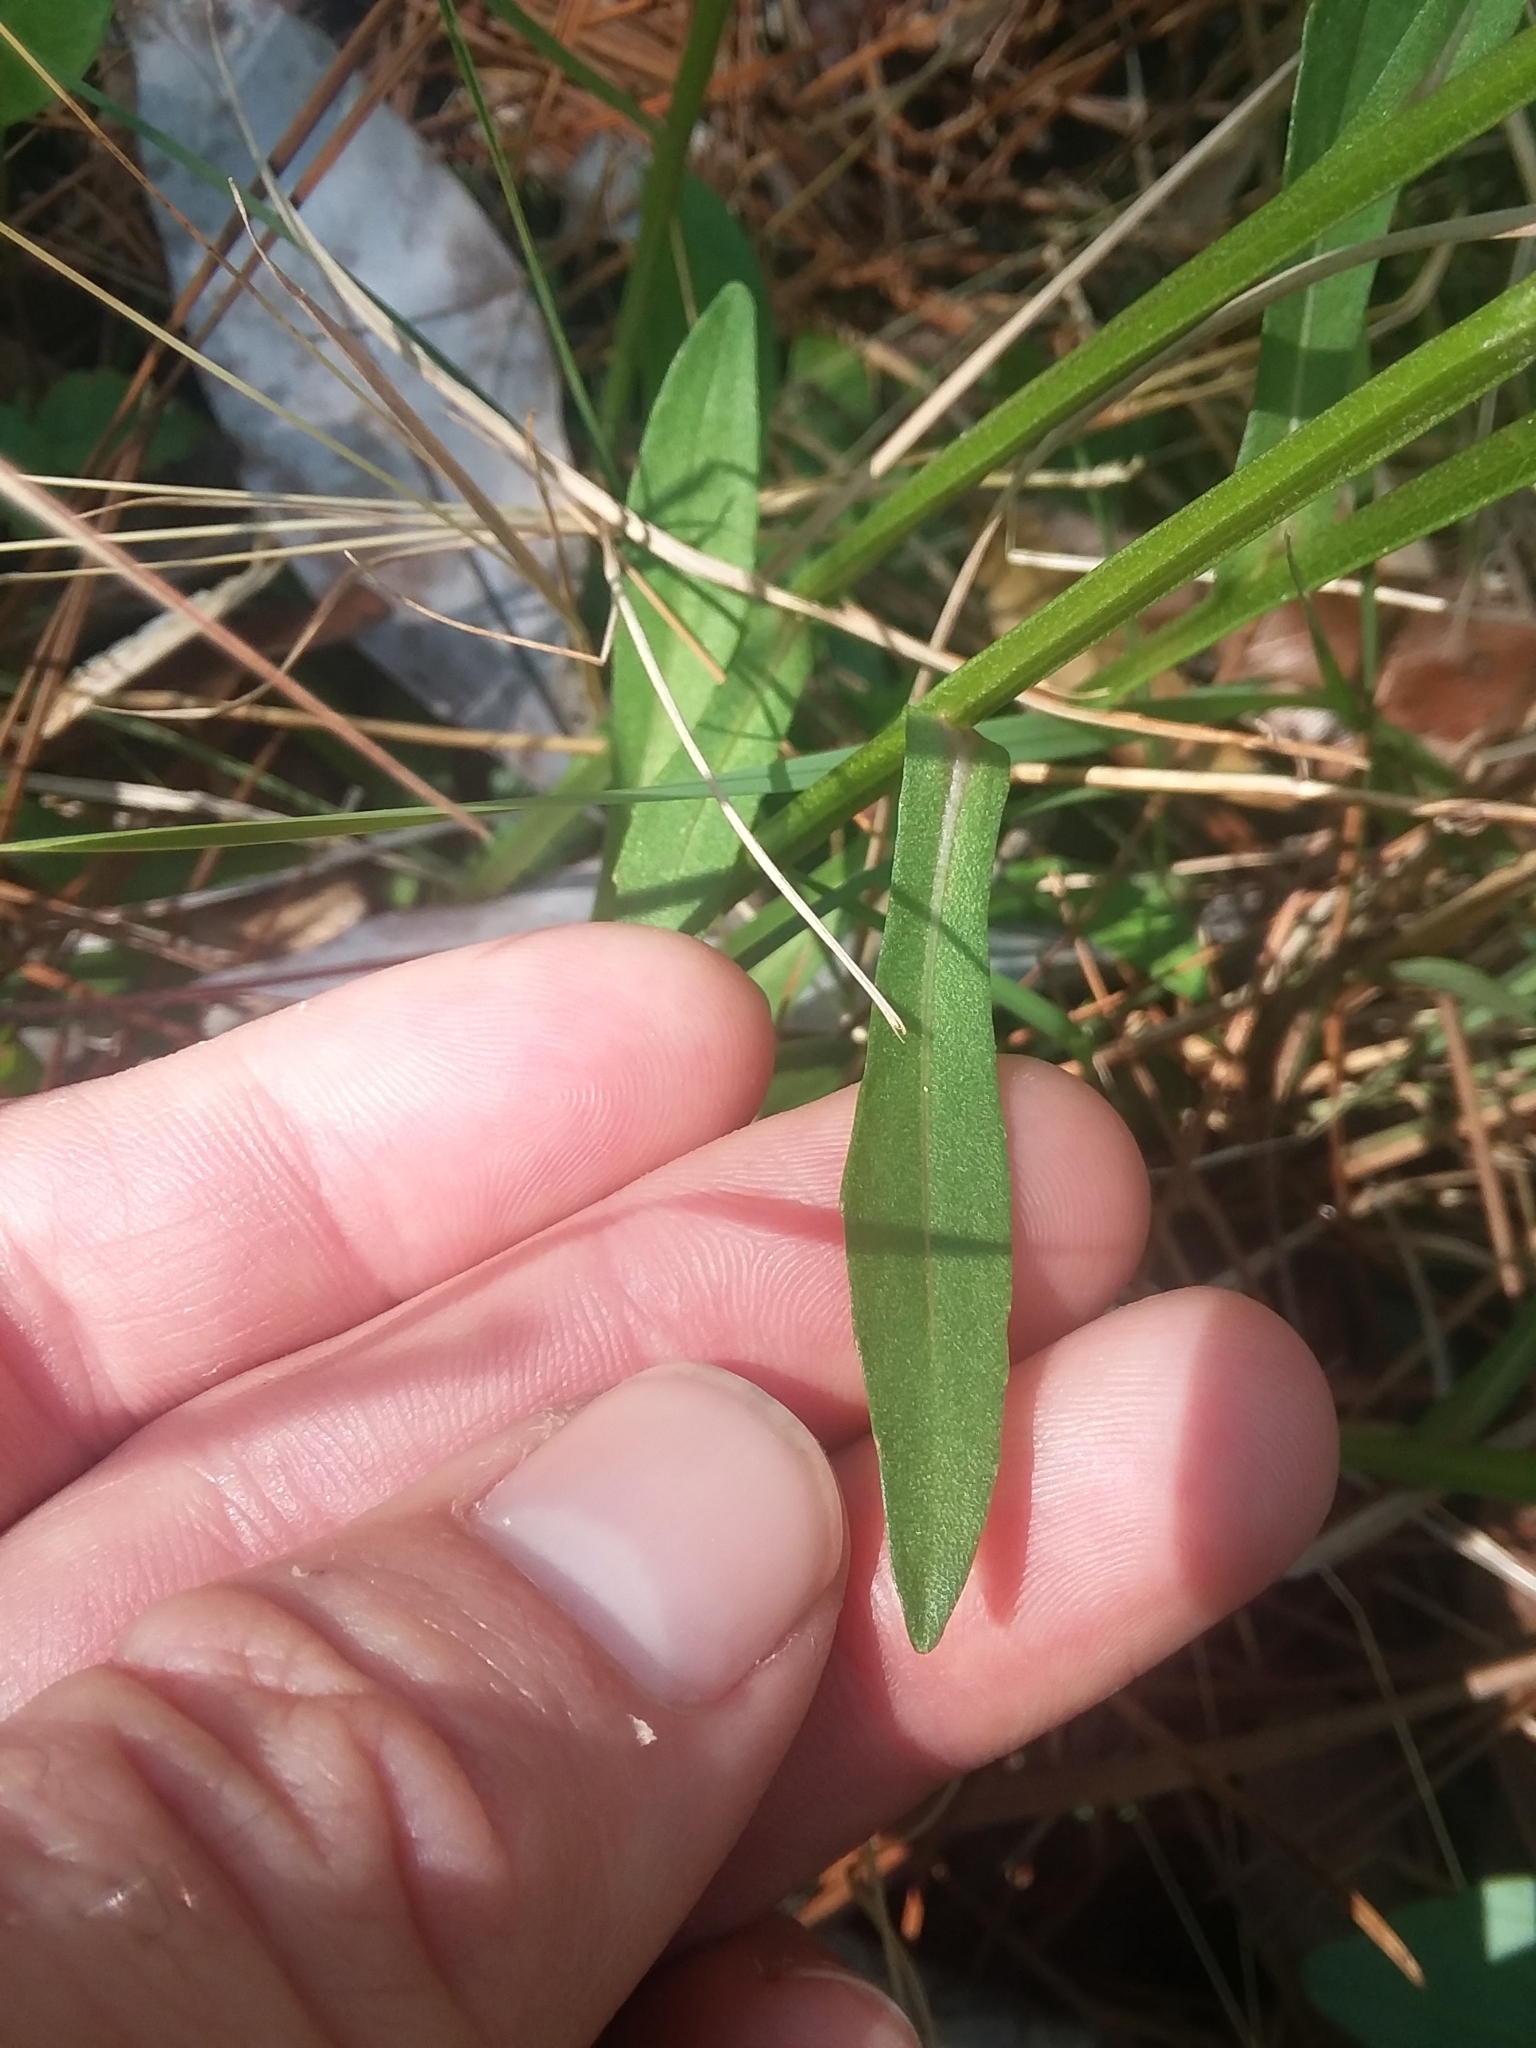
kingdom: Plantae
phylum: Tracheophyta
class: Magnoliopsida
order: Asterales
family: Asteraceae
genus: Helenium
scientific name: Helenium brevifolium
